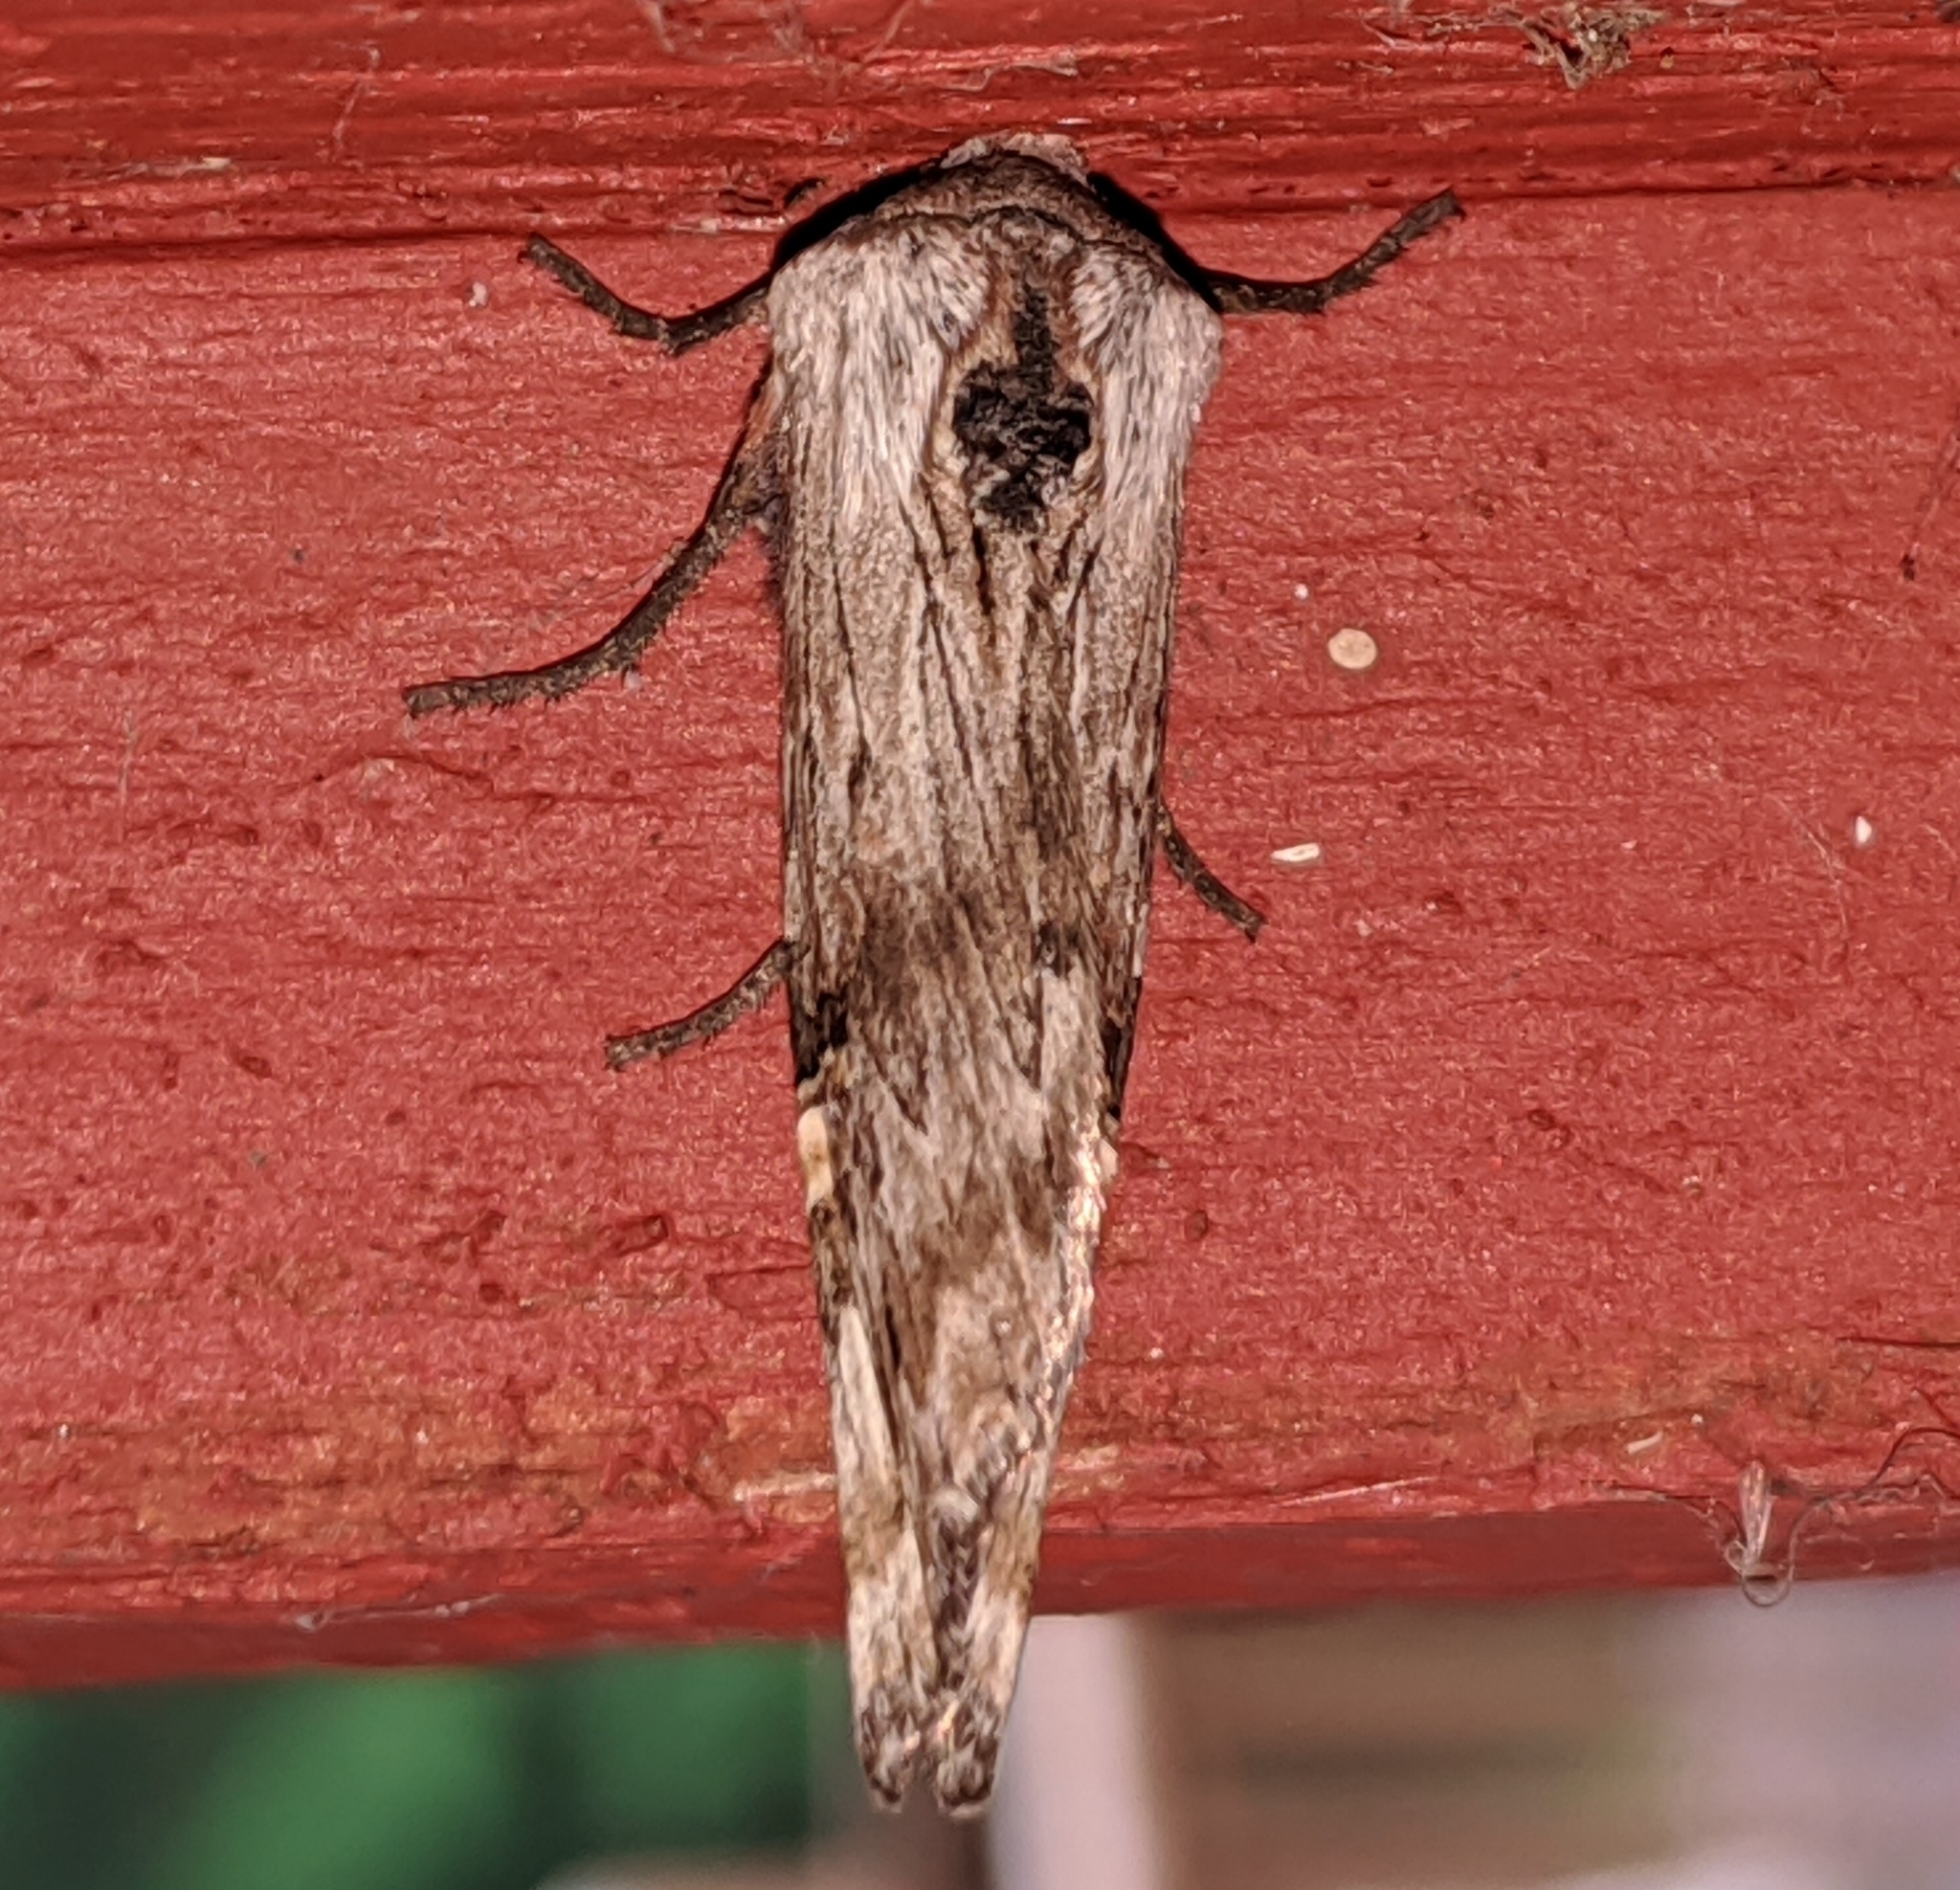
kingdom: Animalia
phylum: Arthropoda
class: Insecta
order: Lepidoptera
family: Noctuidae
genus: Xylena
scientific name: Xylena germana
